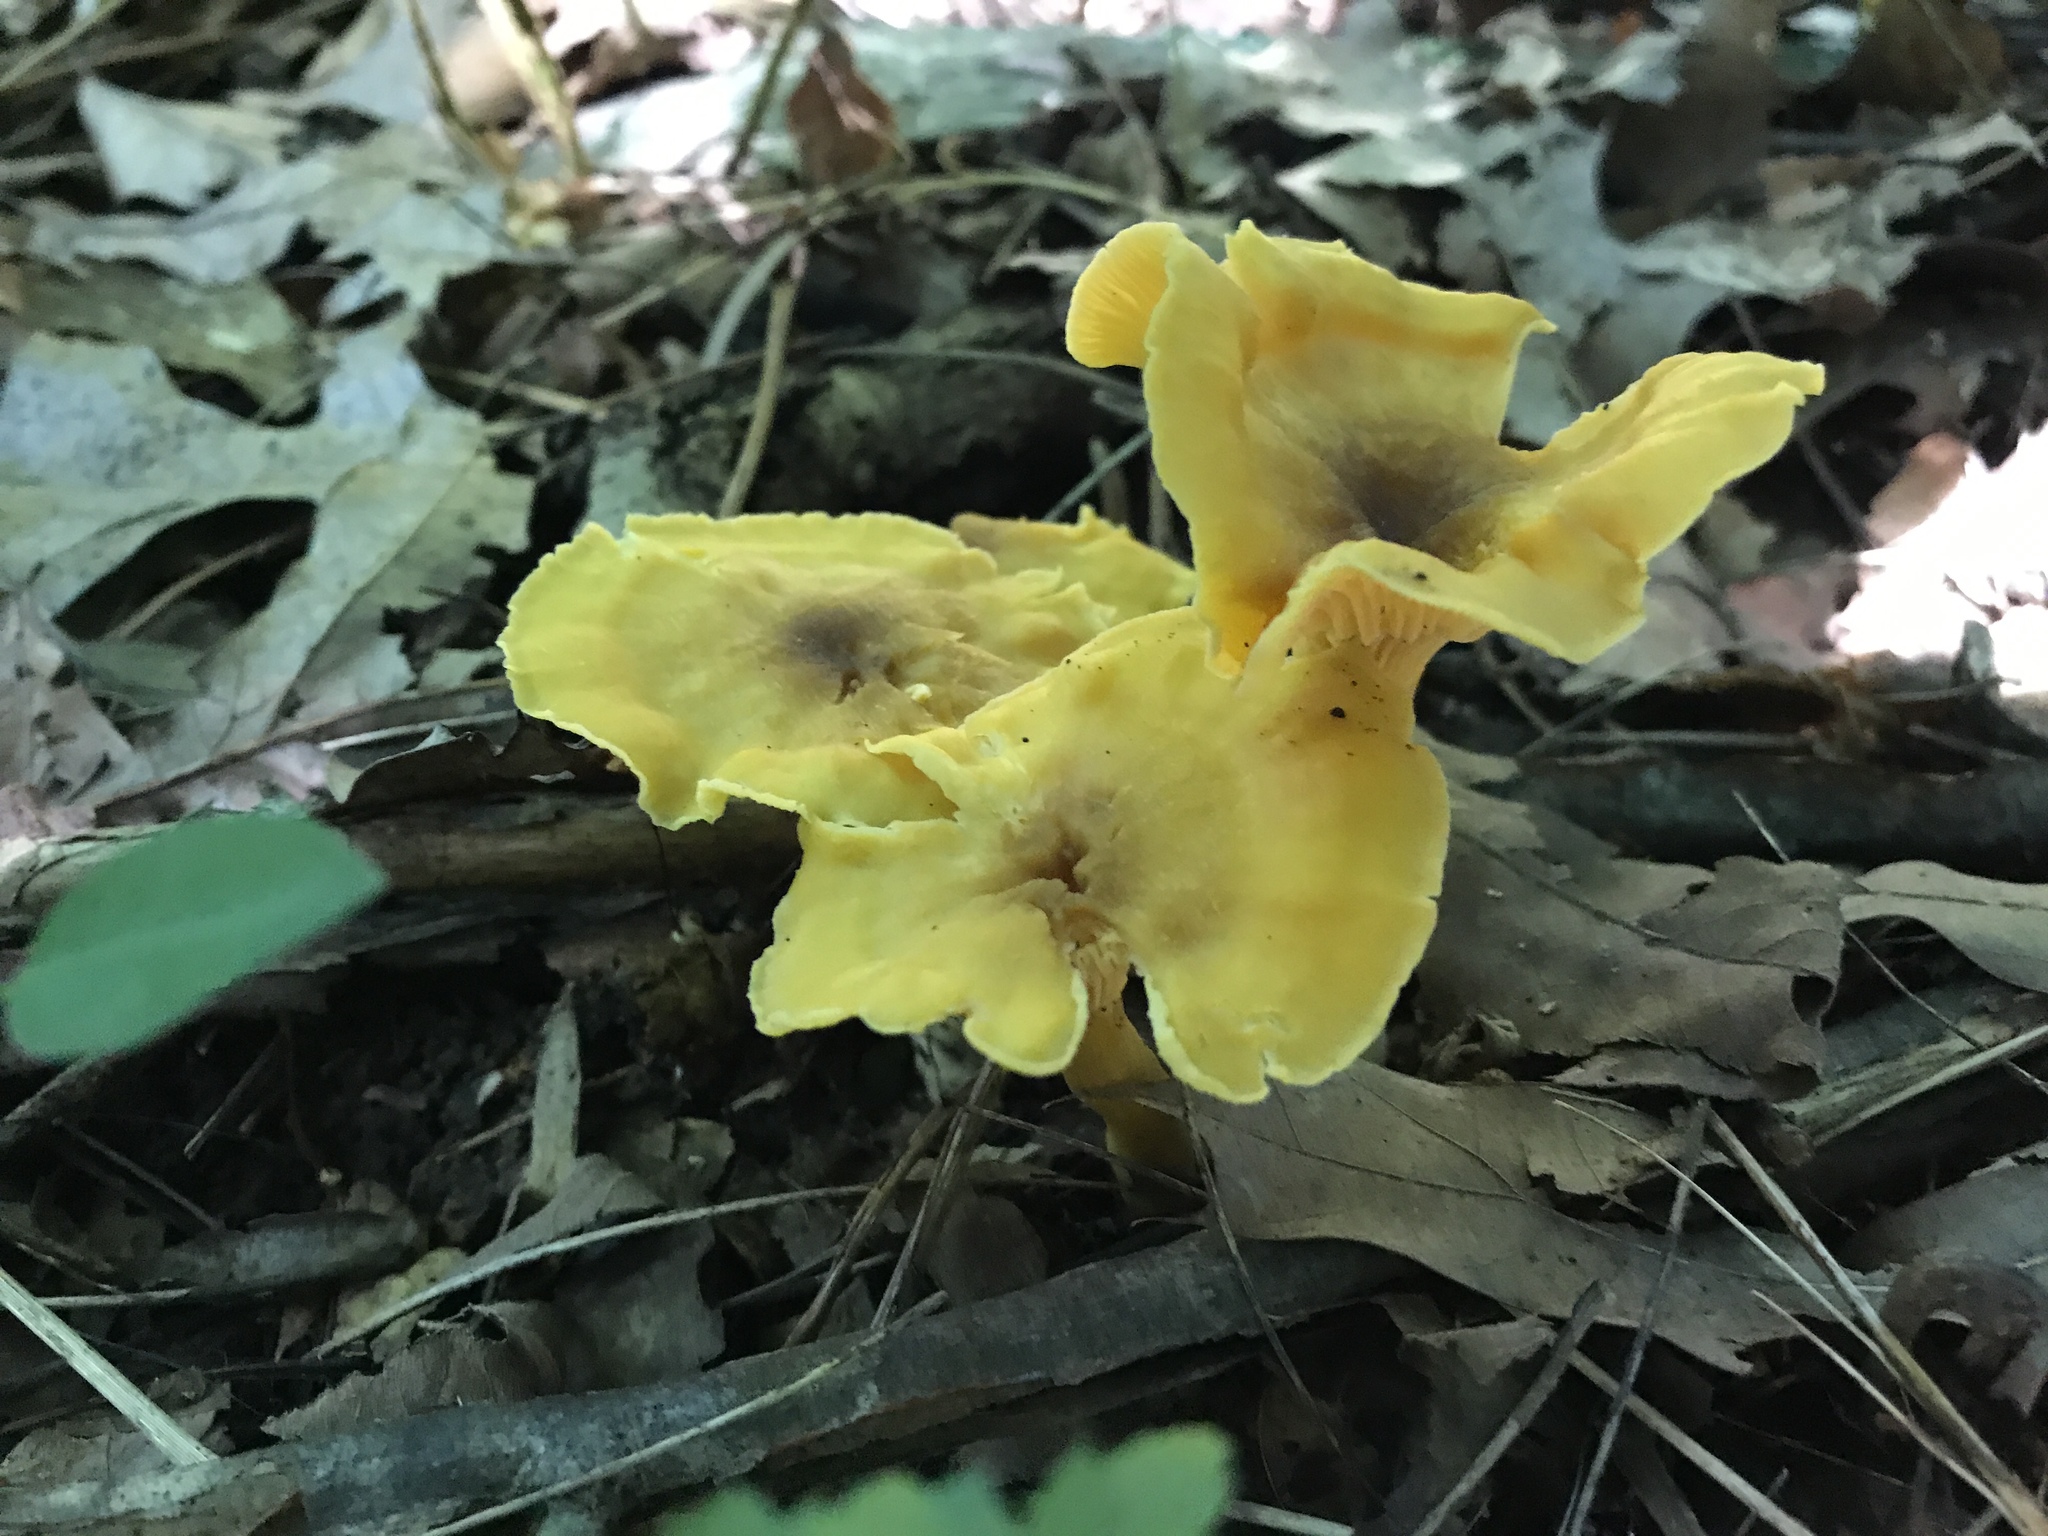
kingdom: Fungi
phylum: Basidiomycota
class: Agaricomycetes
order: Cantharellales
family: Hydnaceae
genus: Cantharellus
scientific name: Cantharellus appalachiensis
